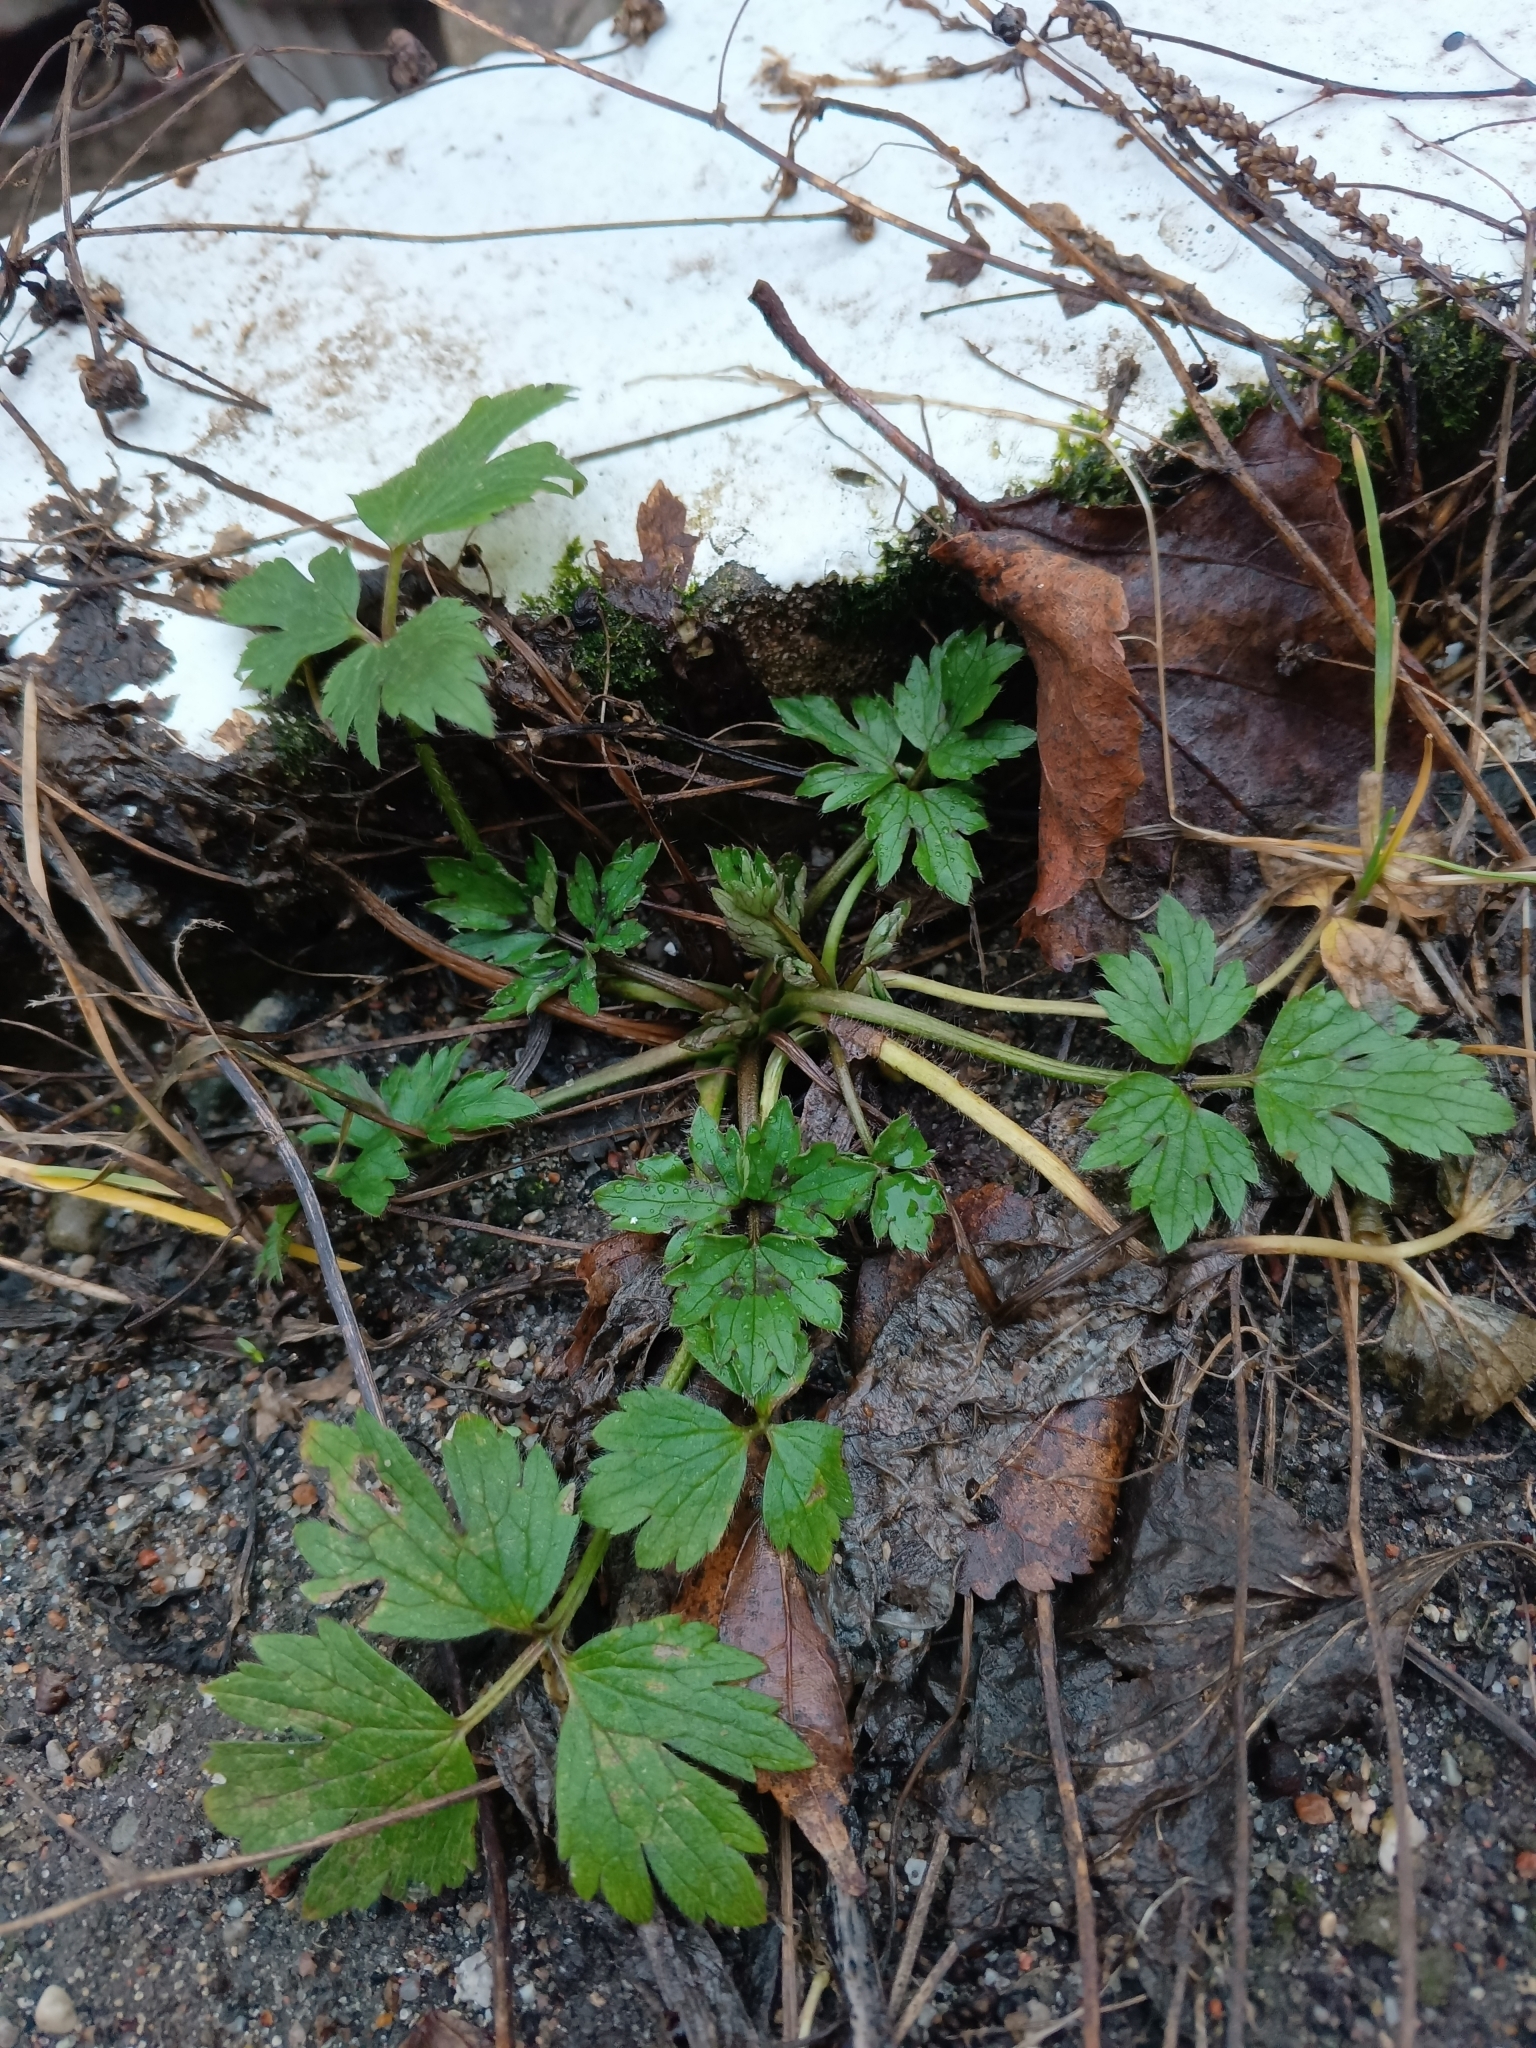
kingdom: Plantae
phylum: Tracheophyta
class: Magnoliopsida
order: Ranunculales
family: Ranunculaceae
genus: Ranunculus
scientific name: Ranunculus repens
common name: Creeping buttercup
